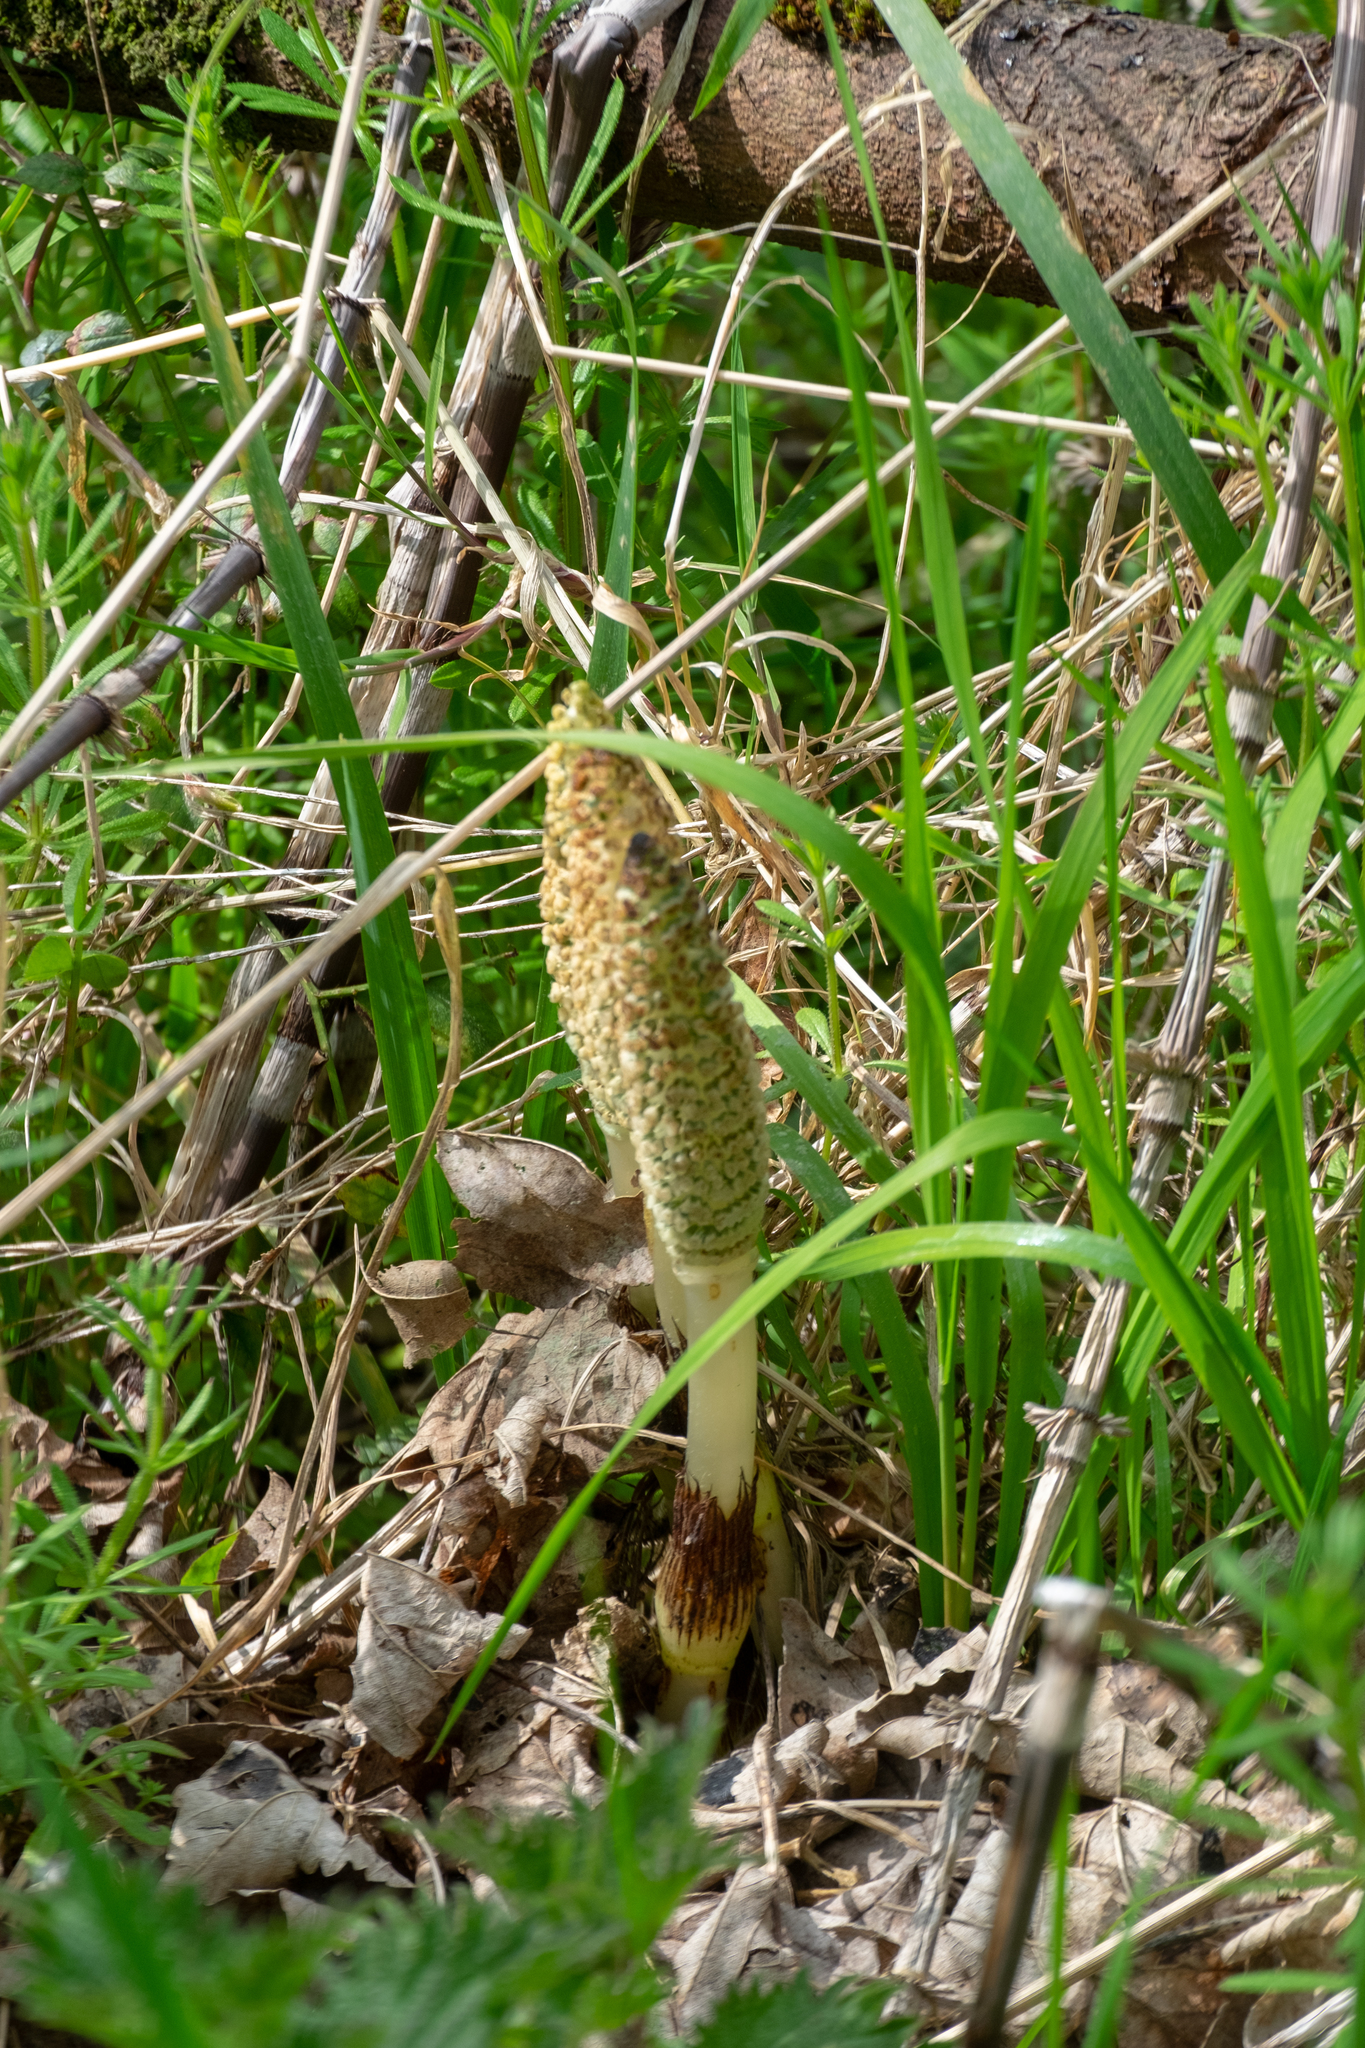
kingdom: Plantae
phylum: Tracheophyta
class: Polypodiopsida
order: Equisetales
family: Equisetaceae
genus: Equisetum
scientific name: Equisetum telmateia
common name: Great horsetail
